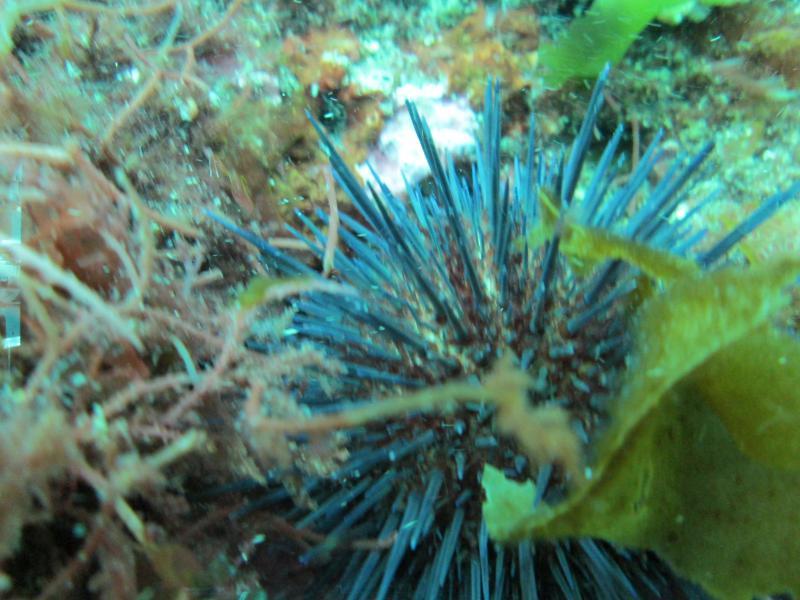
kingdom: Animalia
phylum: Echinodermata
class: Echinoidea
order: Camarodonta
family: Parechinidae
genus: Paracentrotus
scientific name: Paracentrotus lividus
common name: Purple sea urchin
